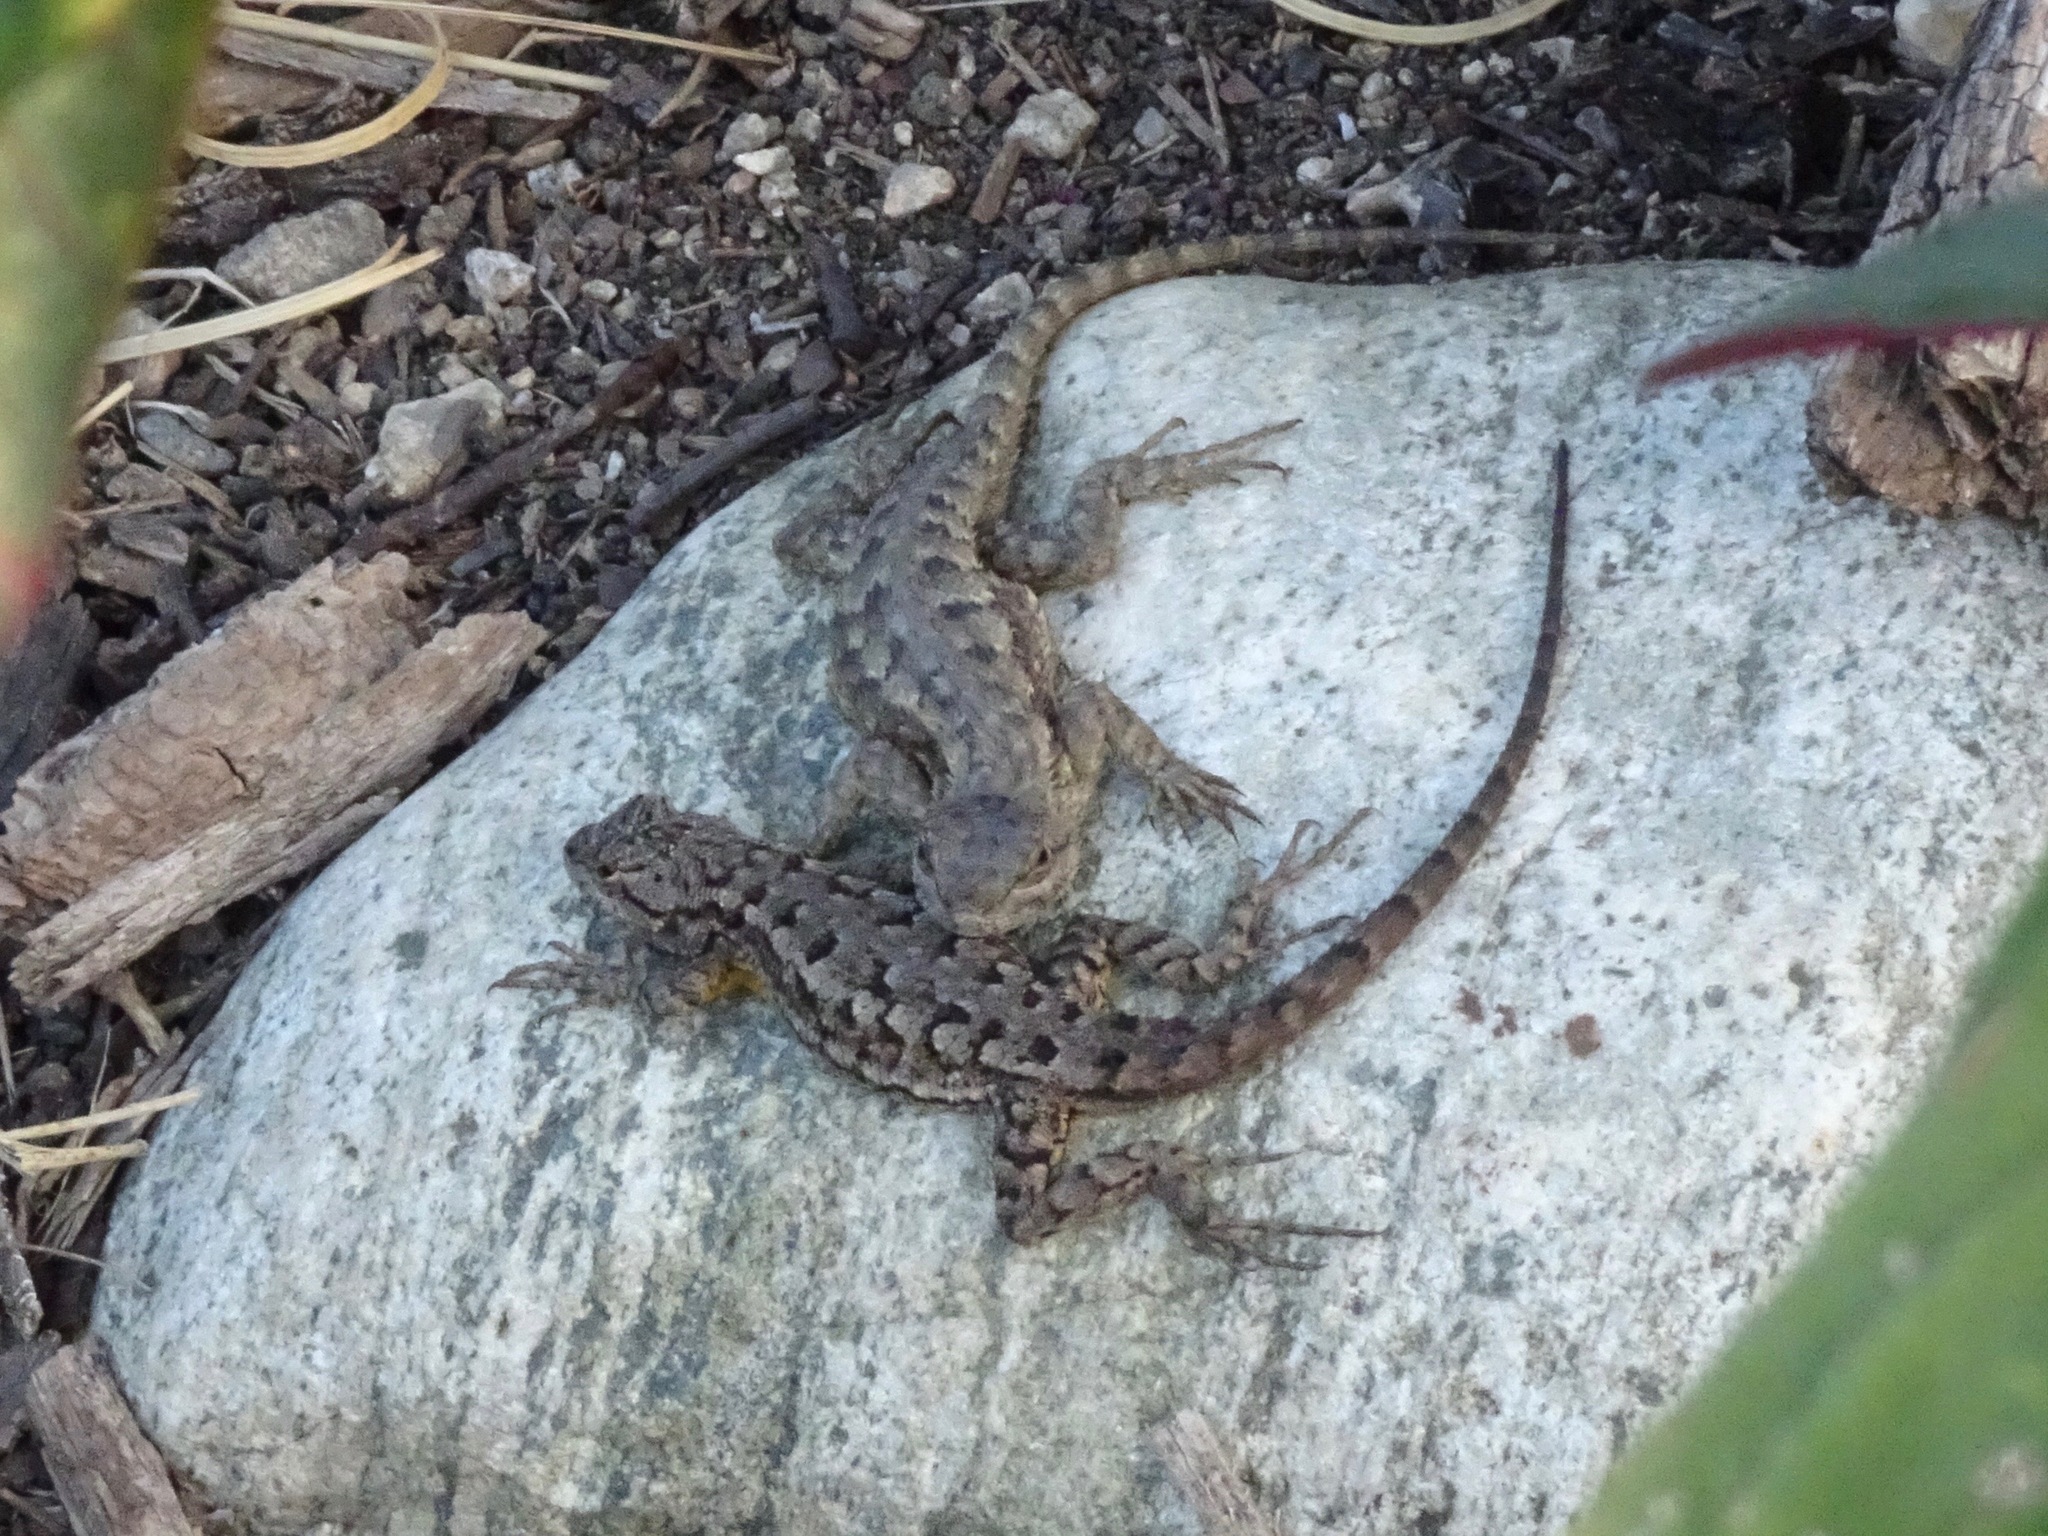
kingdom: Animalia
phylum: Chordata
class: Squamata
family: Phrynosomatidae
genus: Sceloporus
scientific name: Sceloporus occidentalis
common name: Western fence lizard
